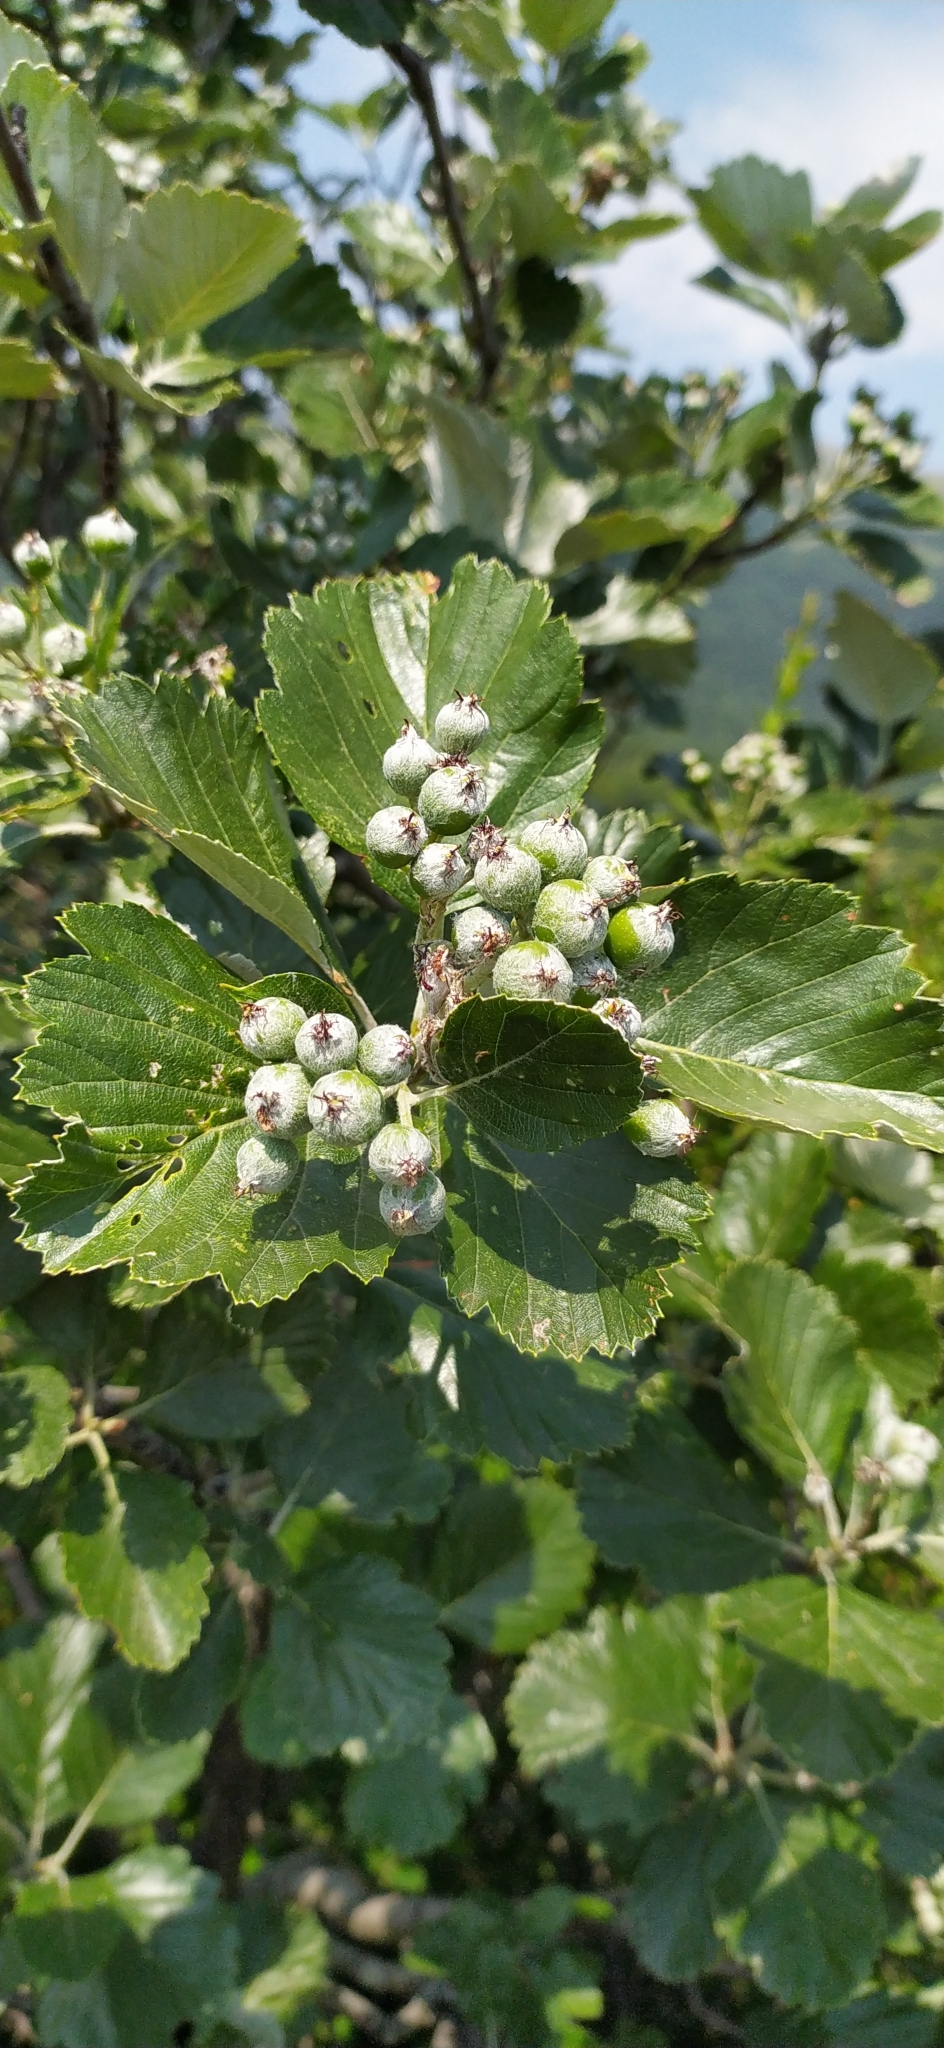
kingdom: Plantae
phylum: Tracheophyta
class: Magnoliopsida
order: Rosales
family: Rosaceae
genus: Aria
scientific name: Aria graeca
